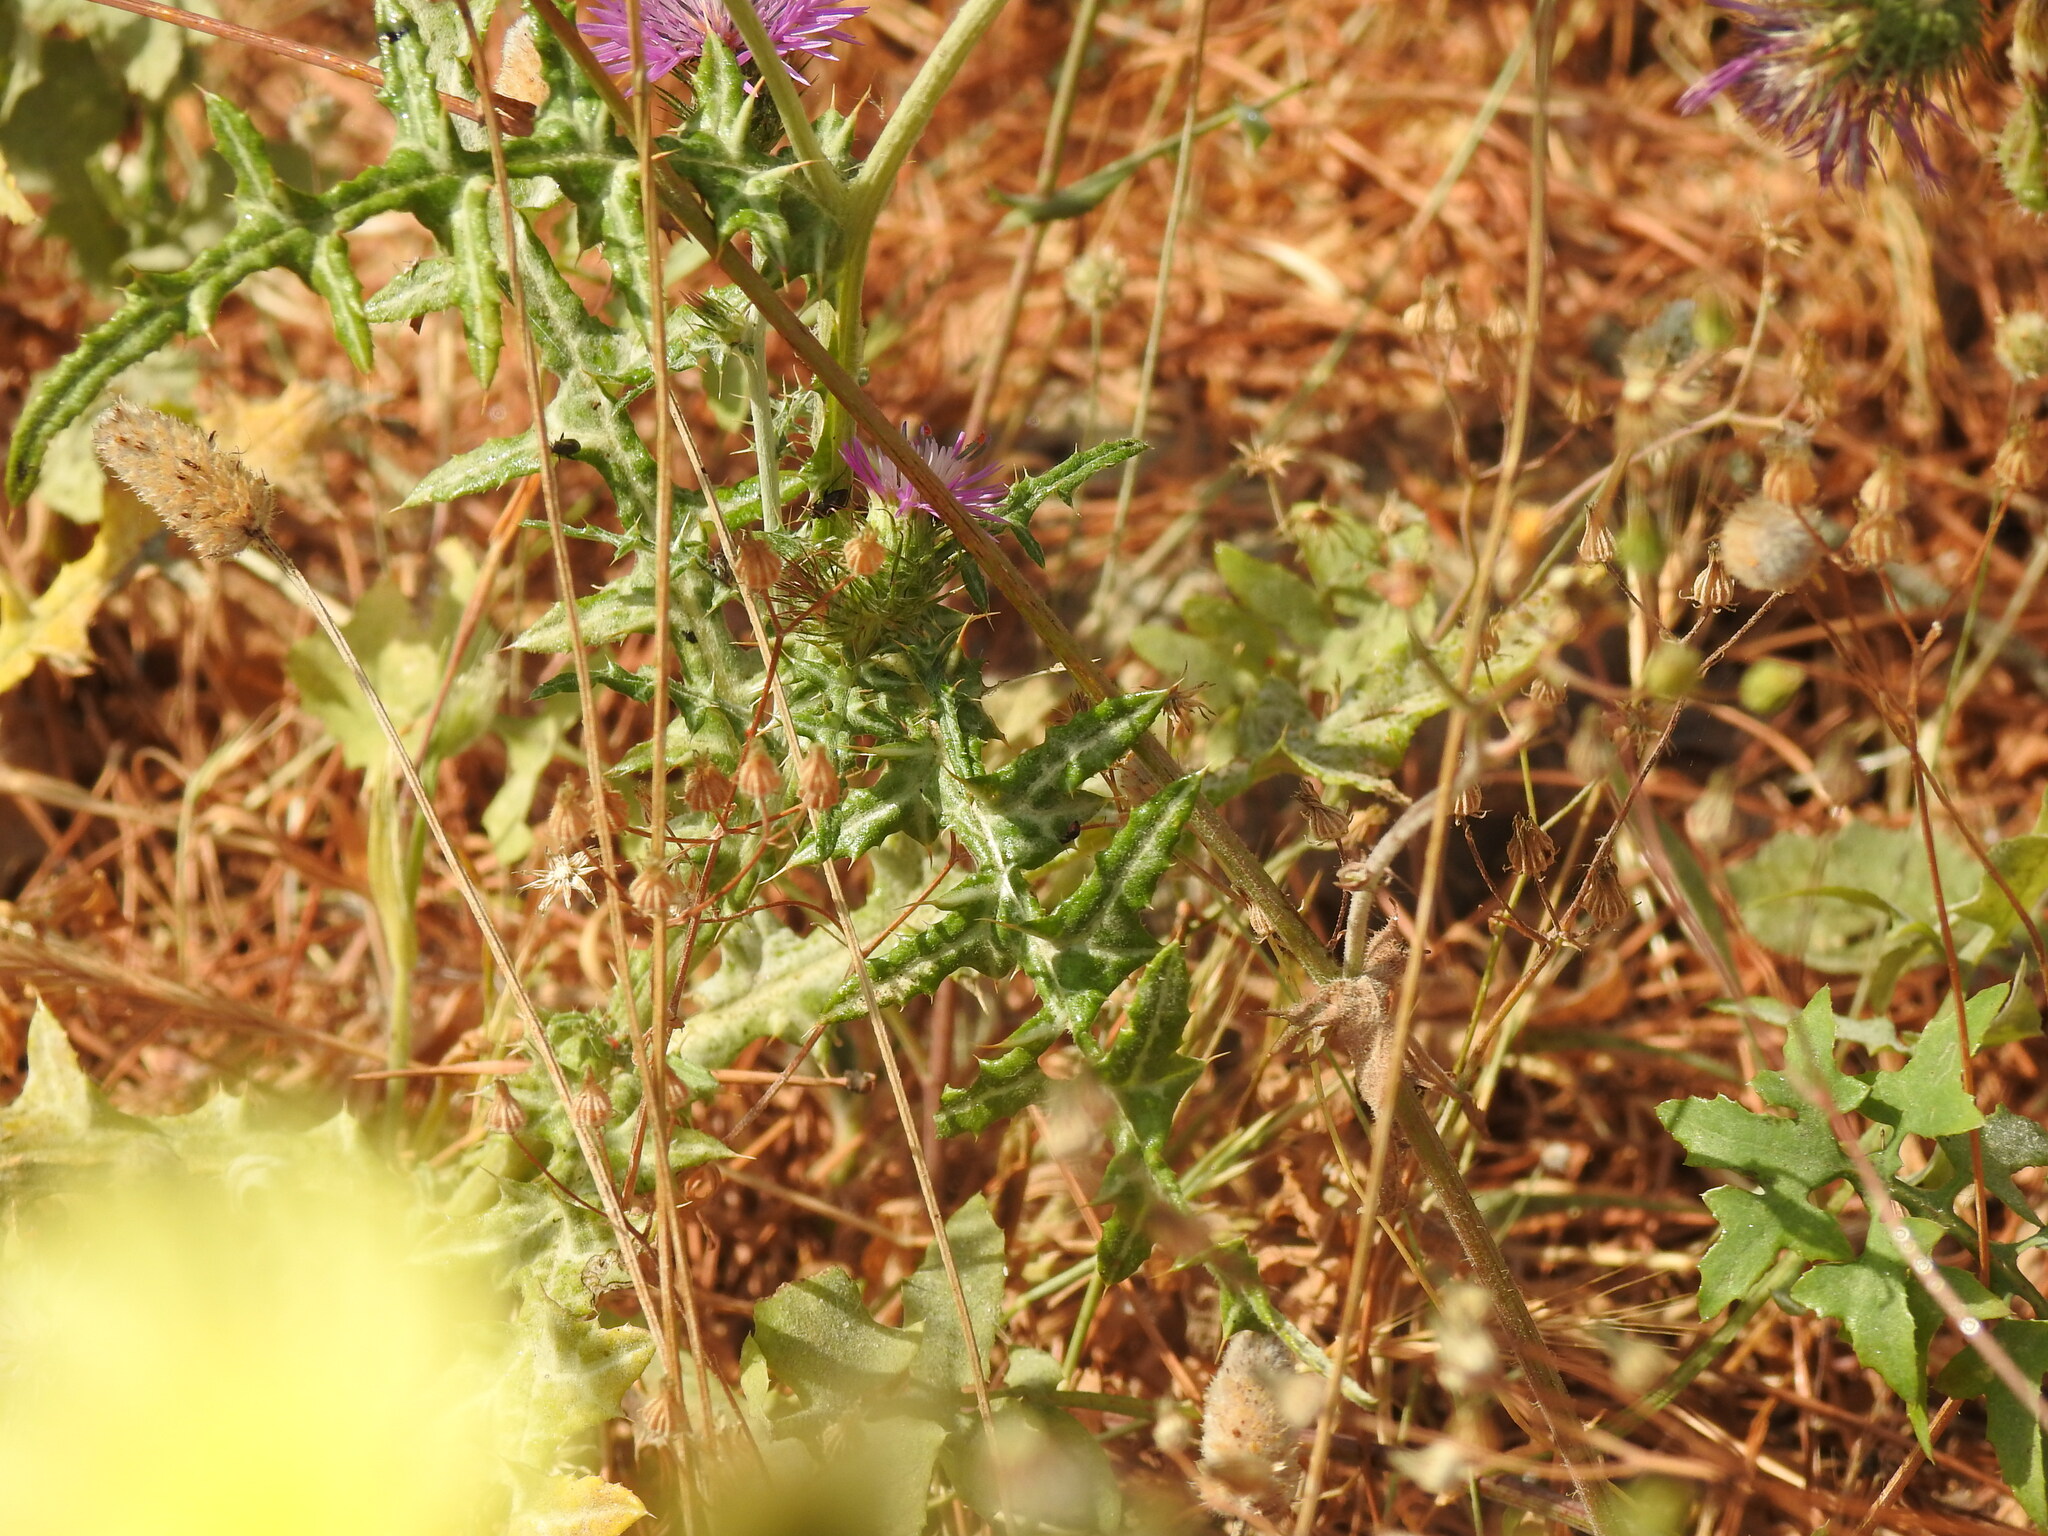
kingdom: Plantae
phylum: Tracheophyta
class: Magnoliopsida
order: Asterales
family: Asteraceae
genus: Galactites
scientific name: Galactites tomentosa
